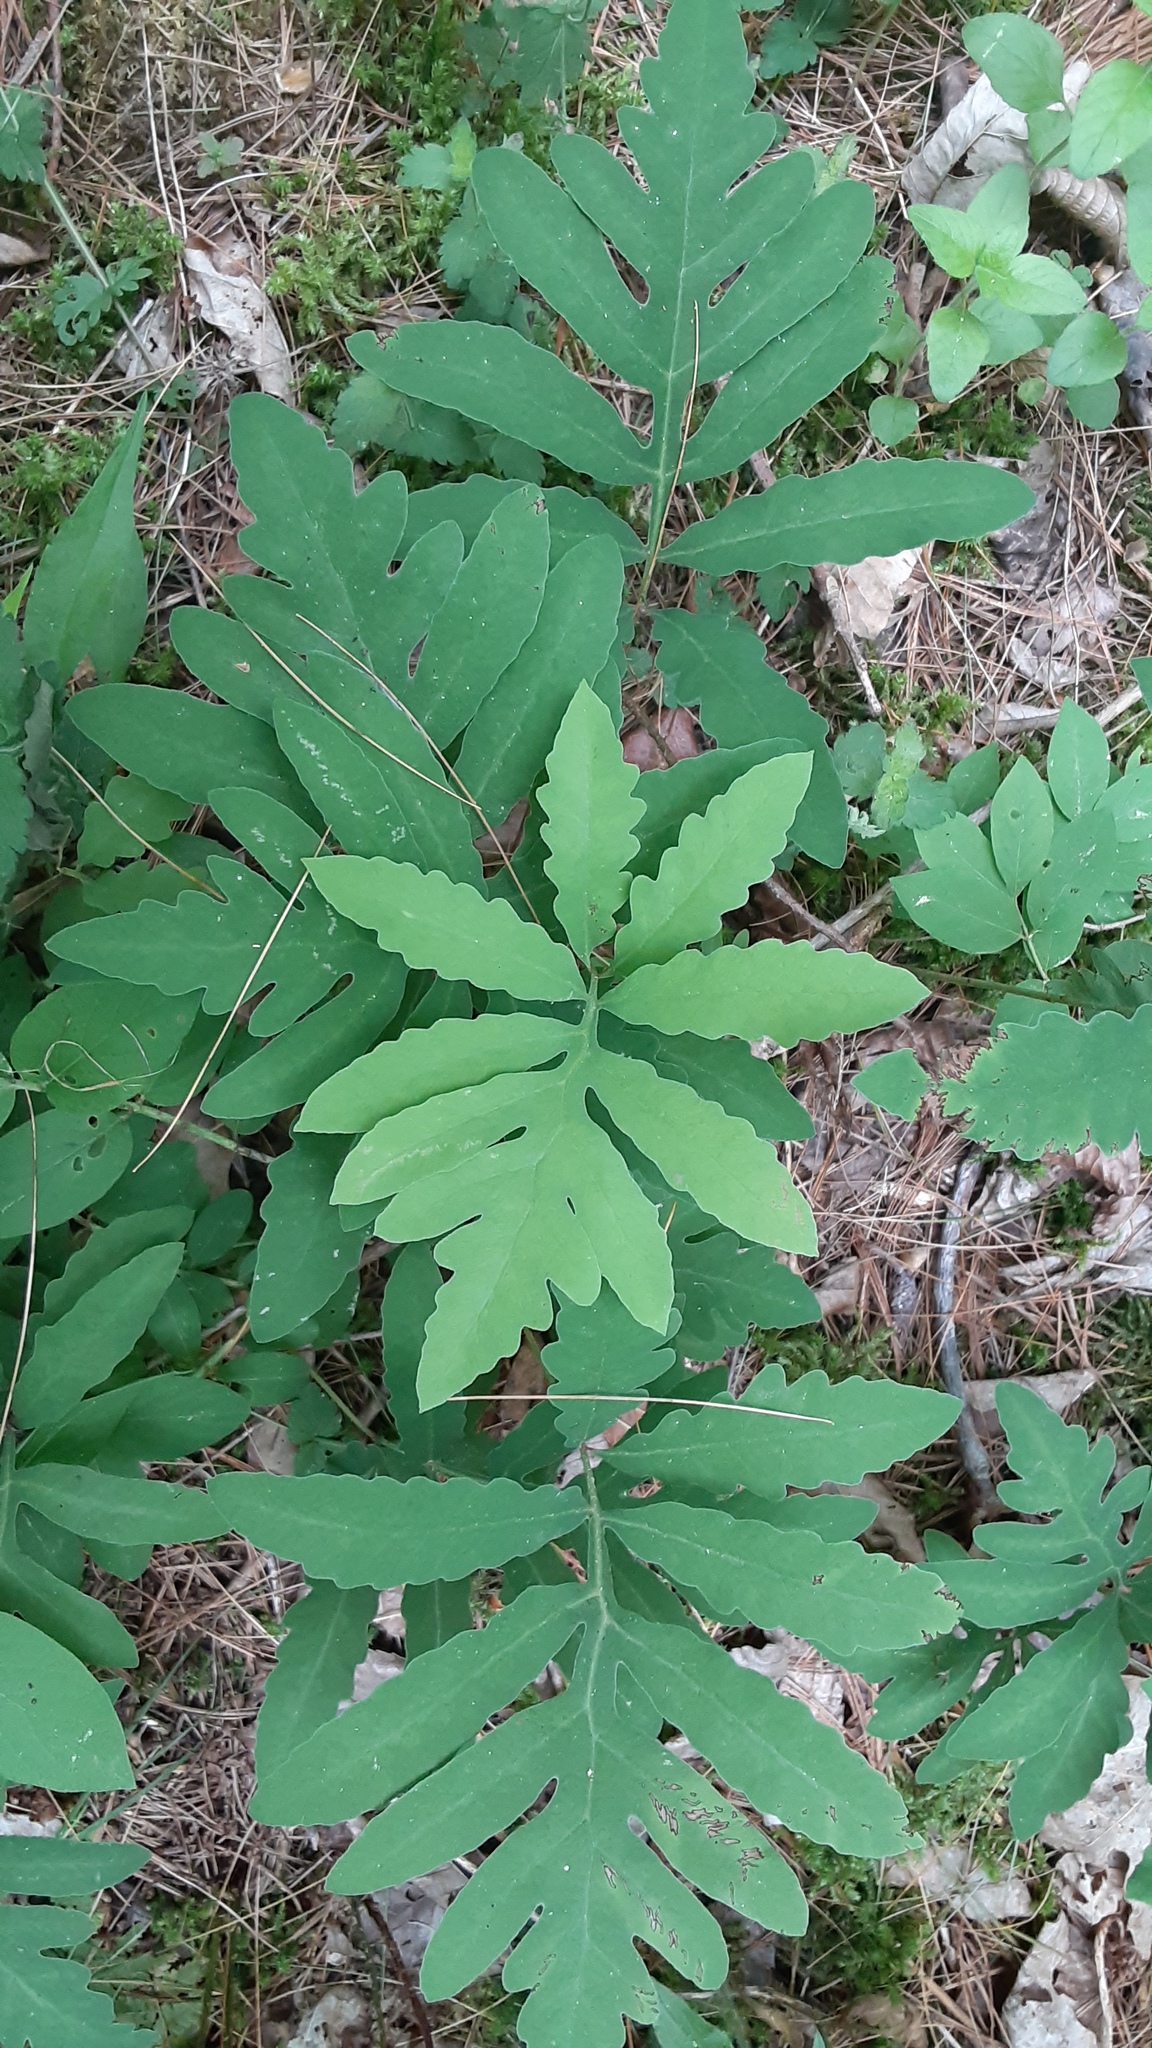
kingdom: Plantae
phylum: Tracheophyta
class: Polypodiopsida
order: Polypodiales
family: Onocleaceae
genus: Onoclea
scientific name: Onoclea sensibilis
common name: Sensitive fern
